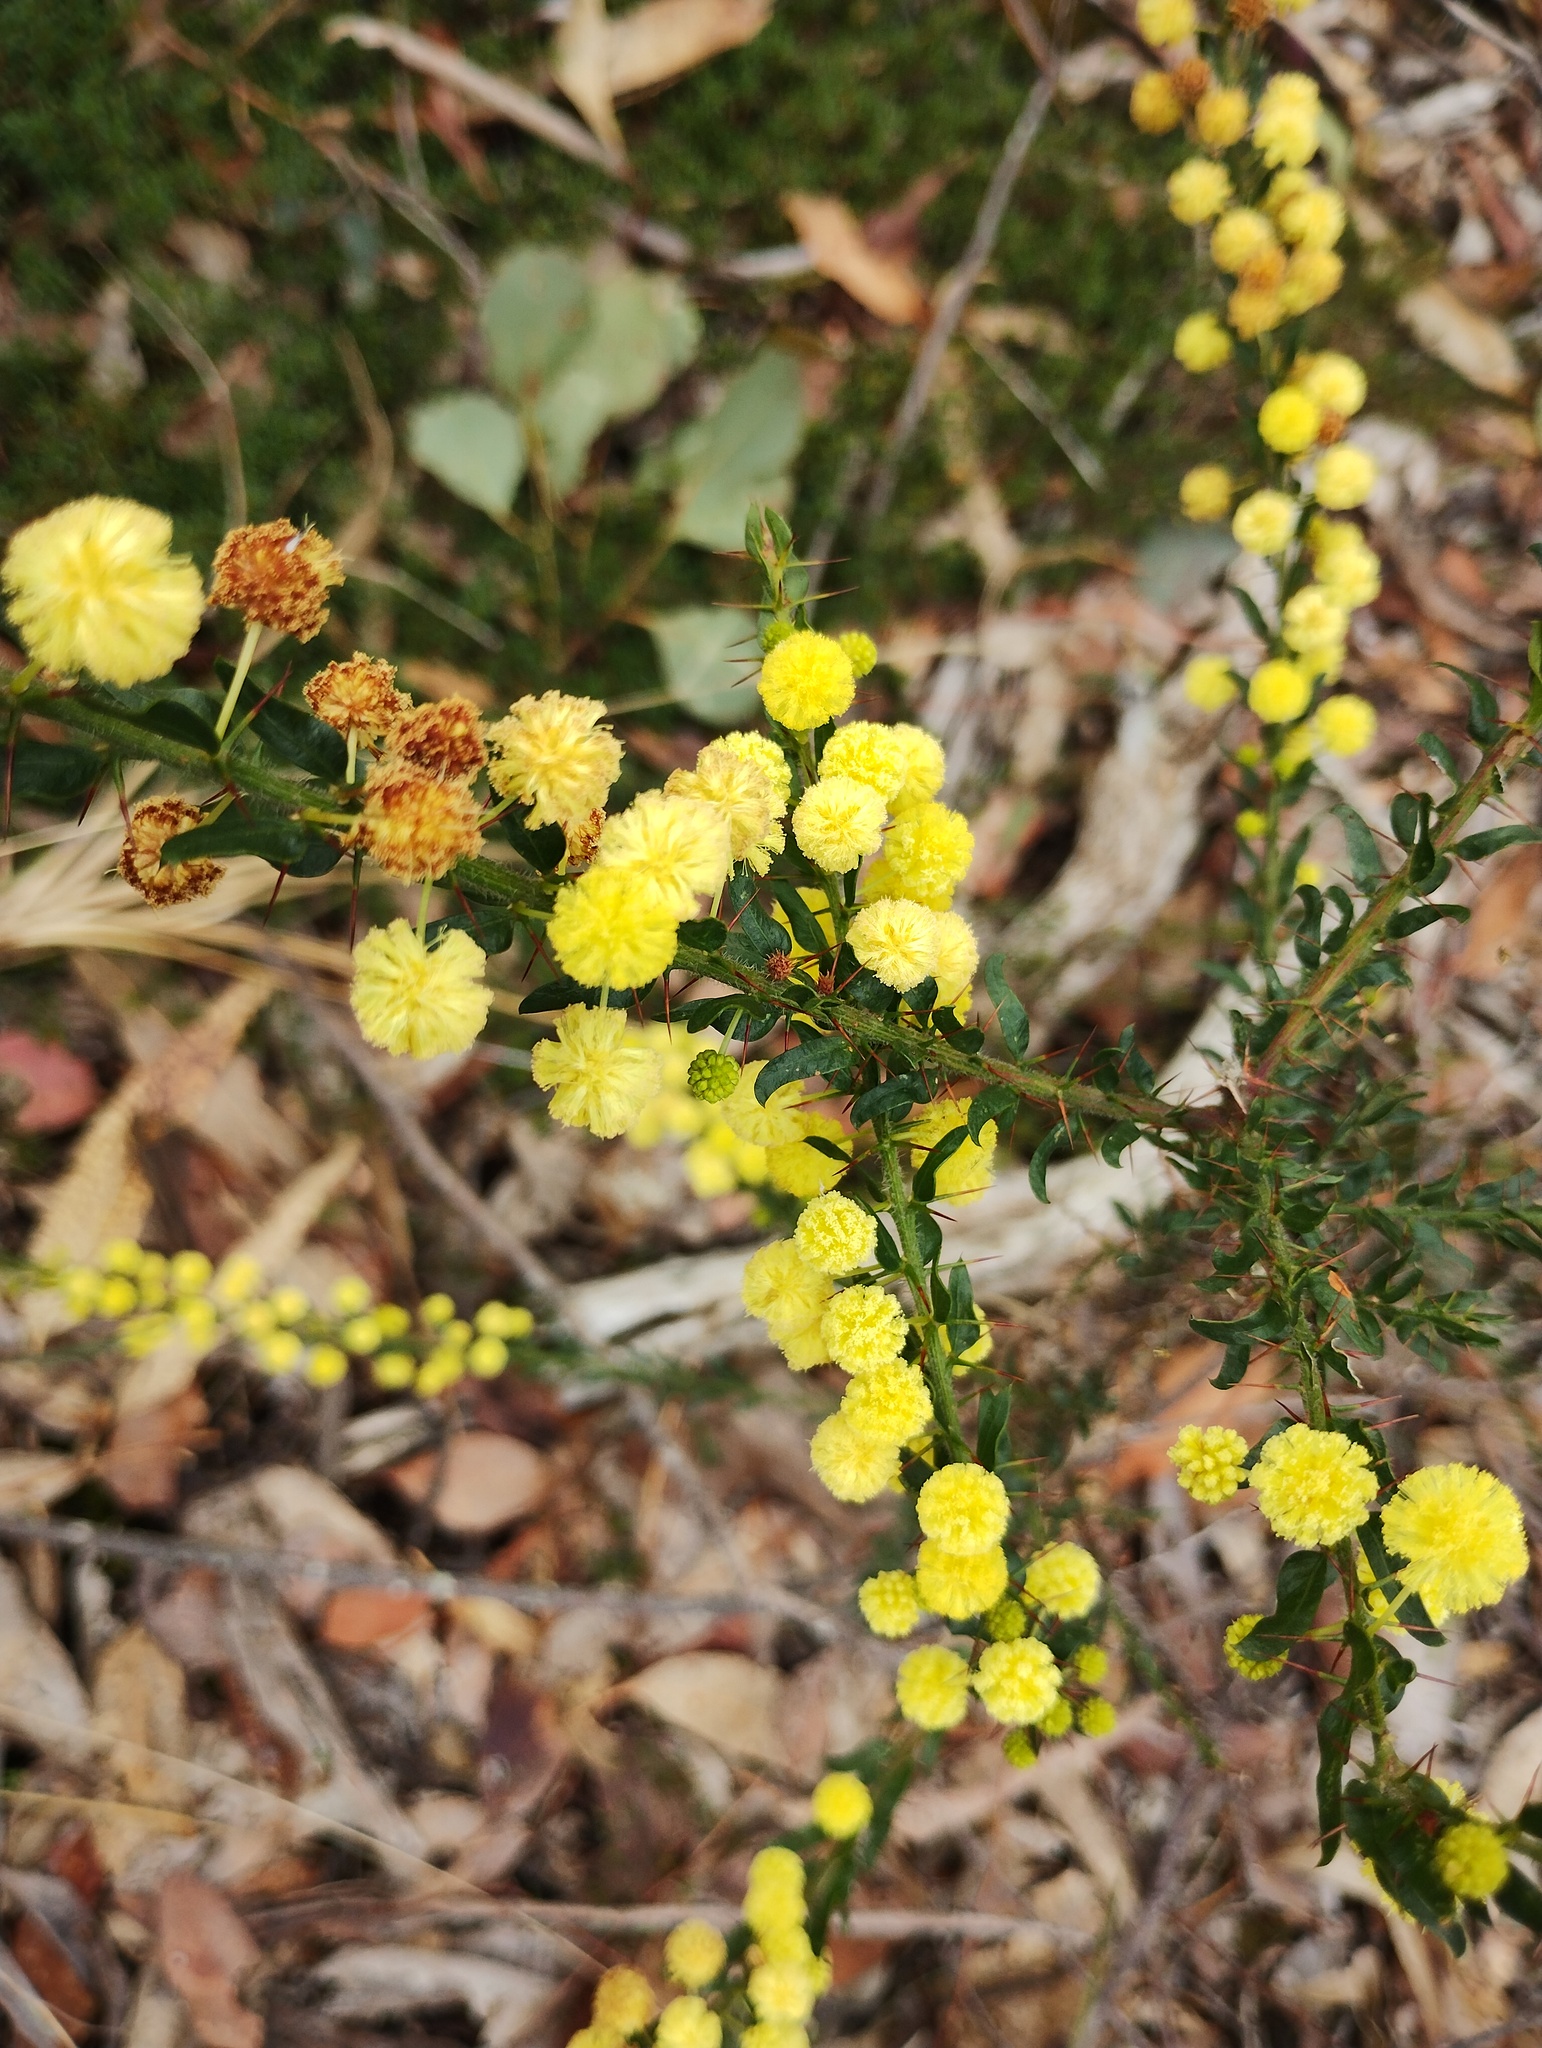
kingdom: Plantae
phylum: Tracheophyta
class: Magnoliopsida
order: Fabales
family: Fabaceae
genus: Acacia
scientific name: Acacia paradoxa
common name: Paradox acacia
